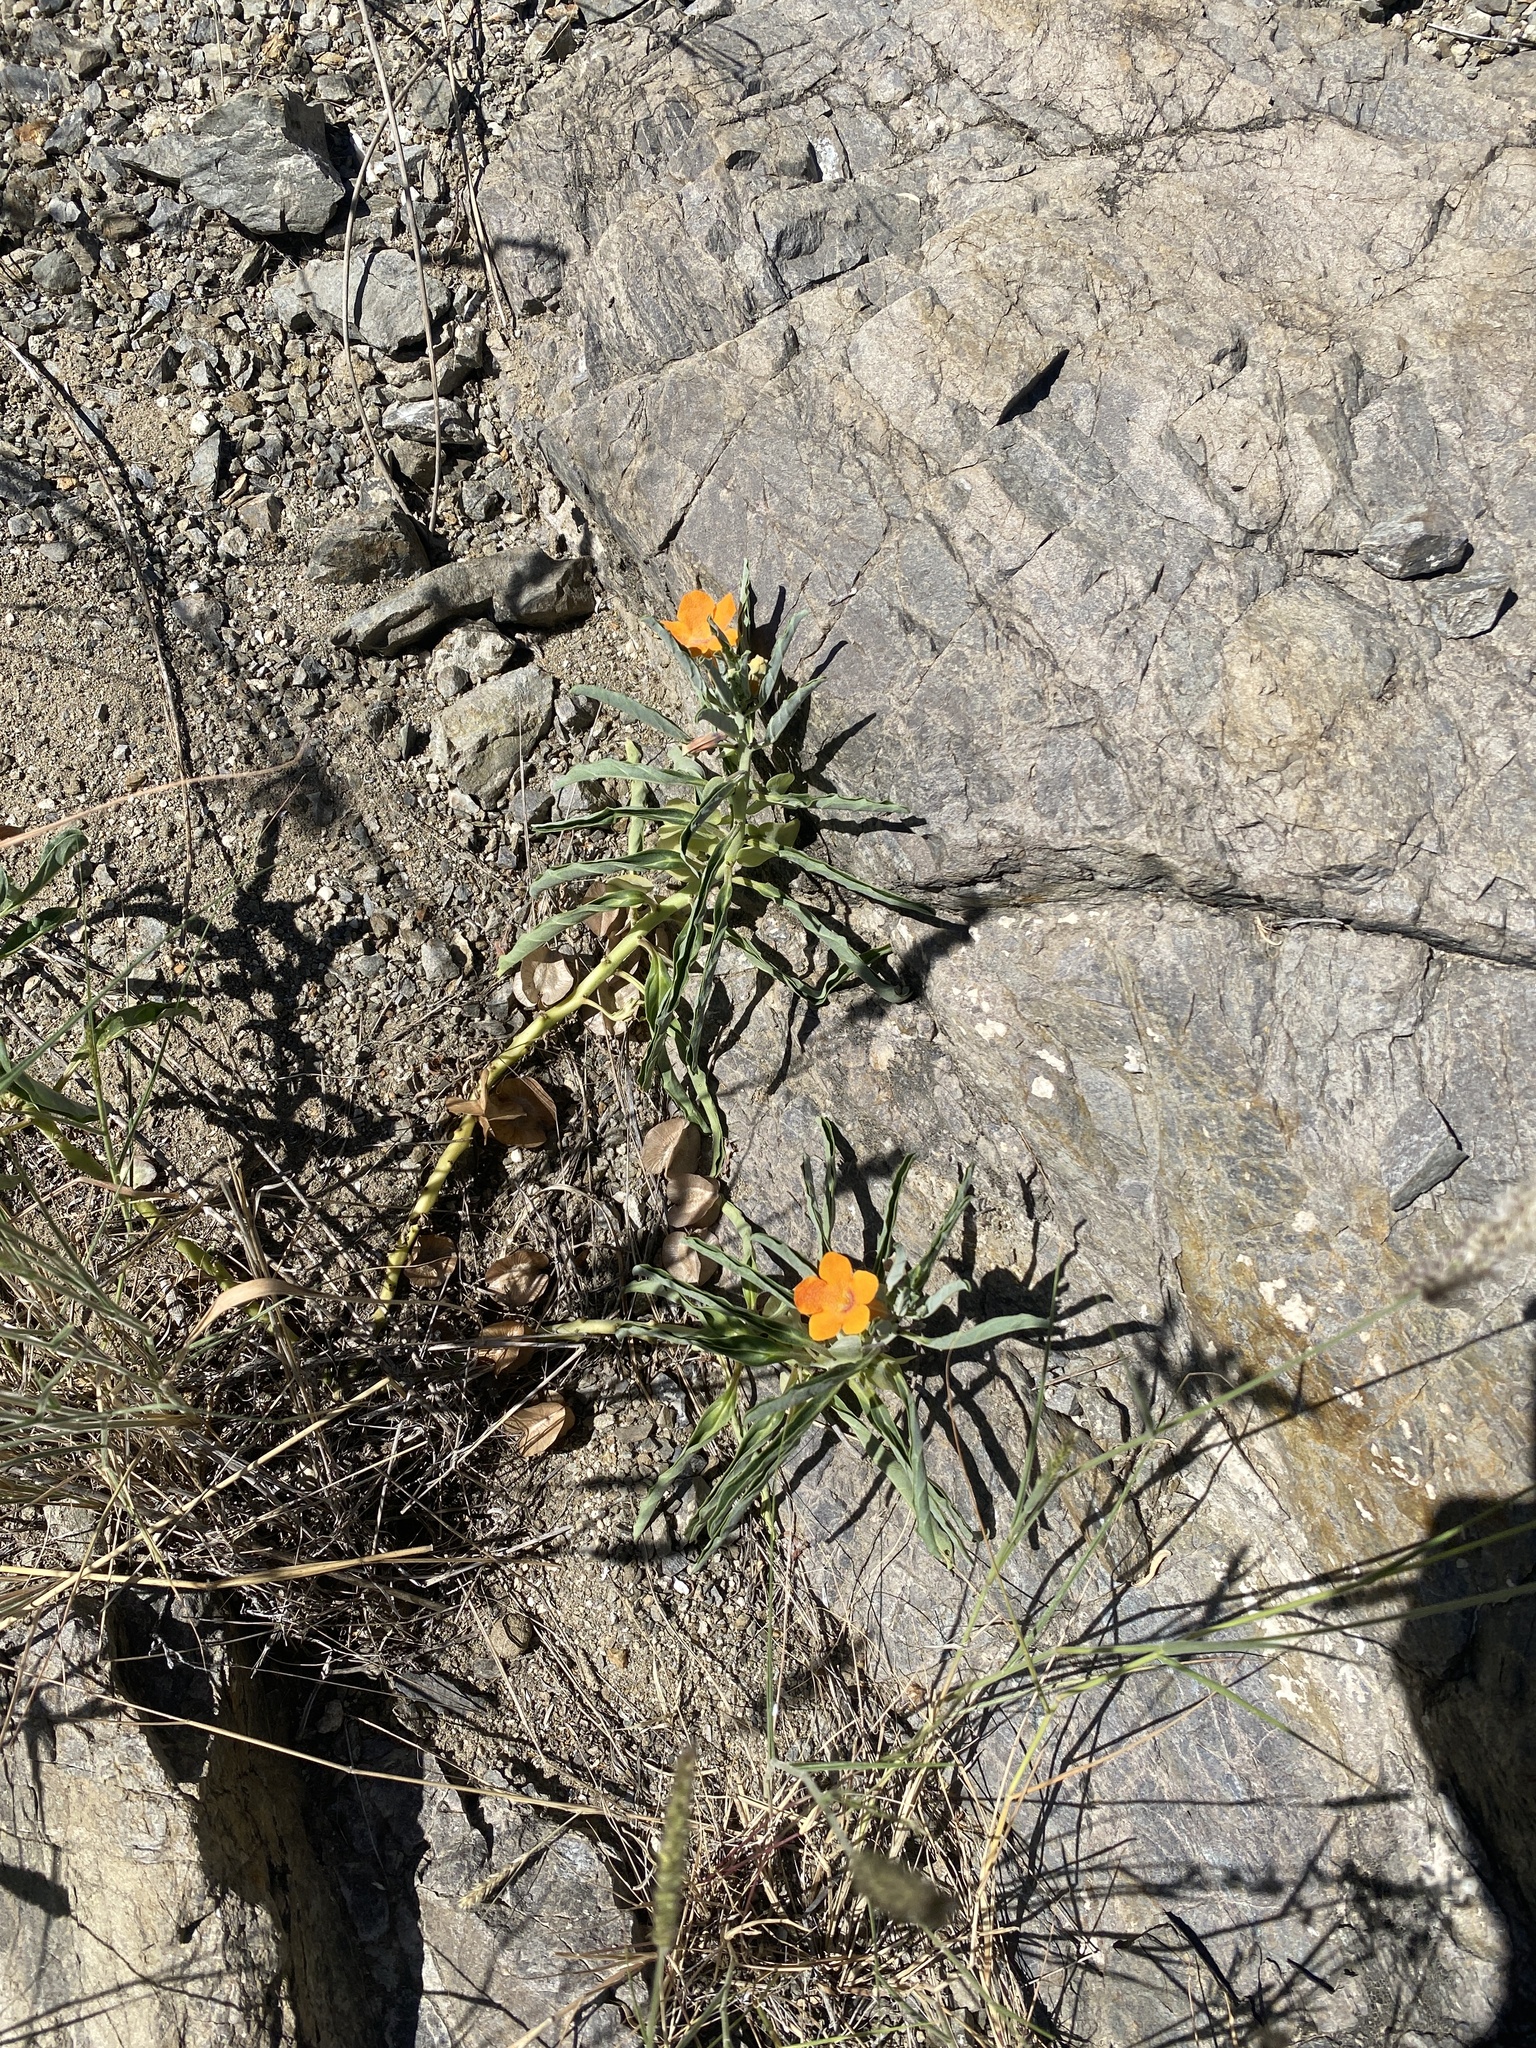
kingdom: Plantae
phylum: Tracheophyta
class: Magnoliopsida
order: Lamiales
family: Pedaliaceae
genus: Pterodiscus
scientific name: Pterodiscus aurantiacus
